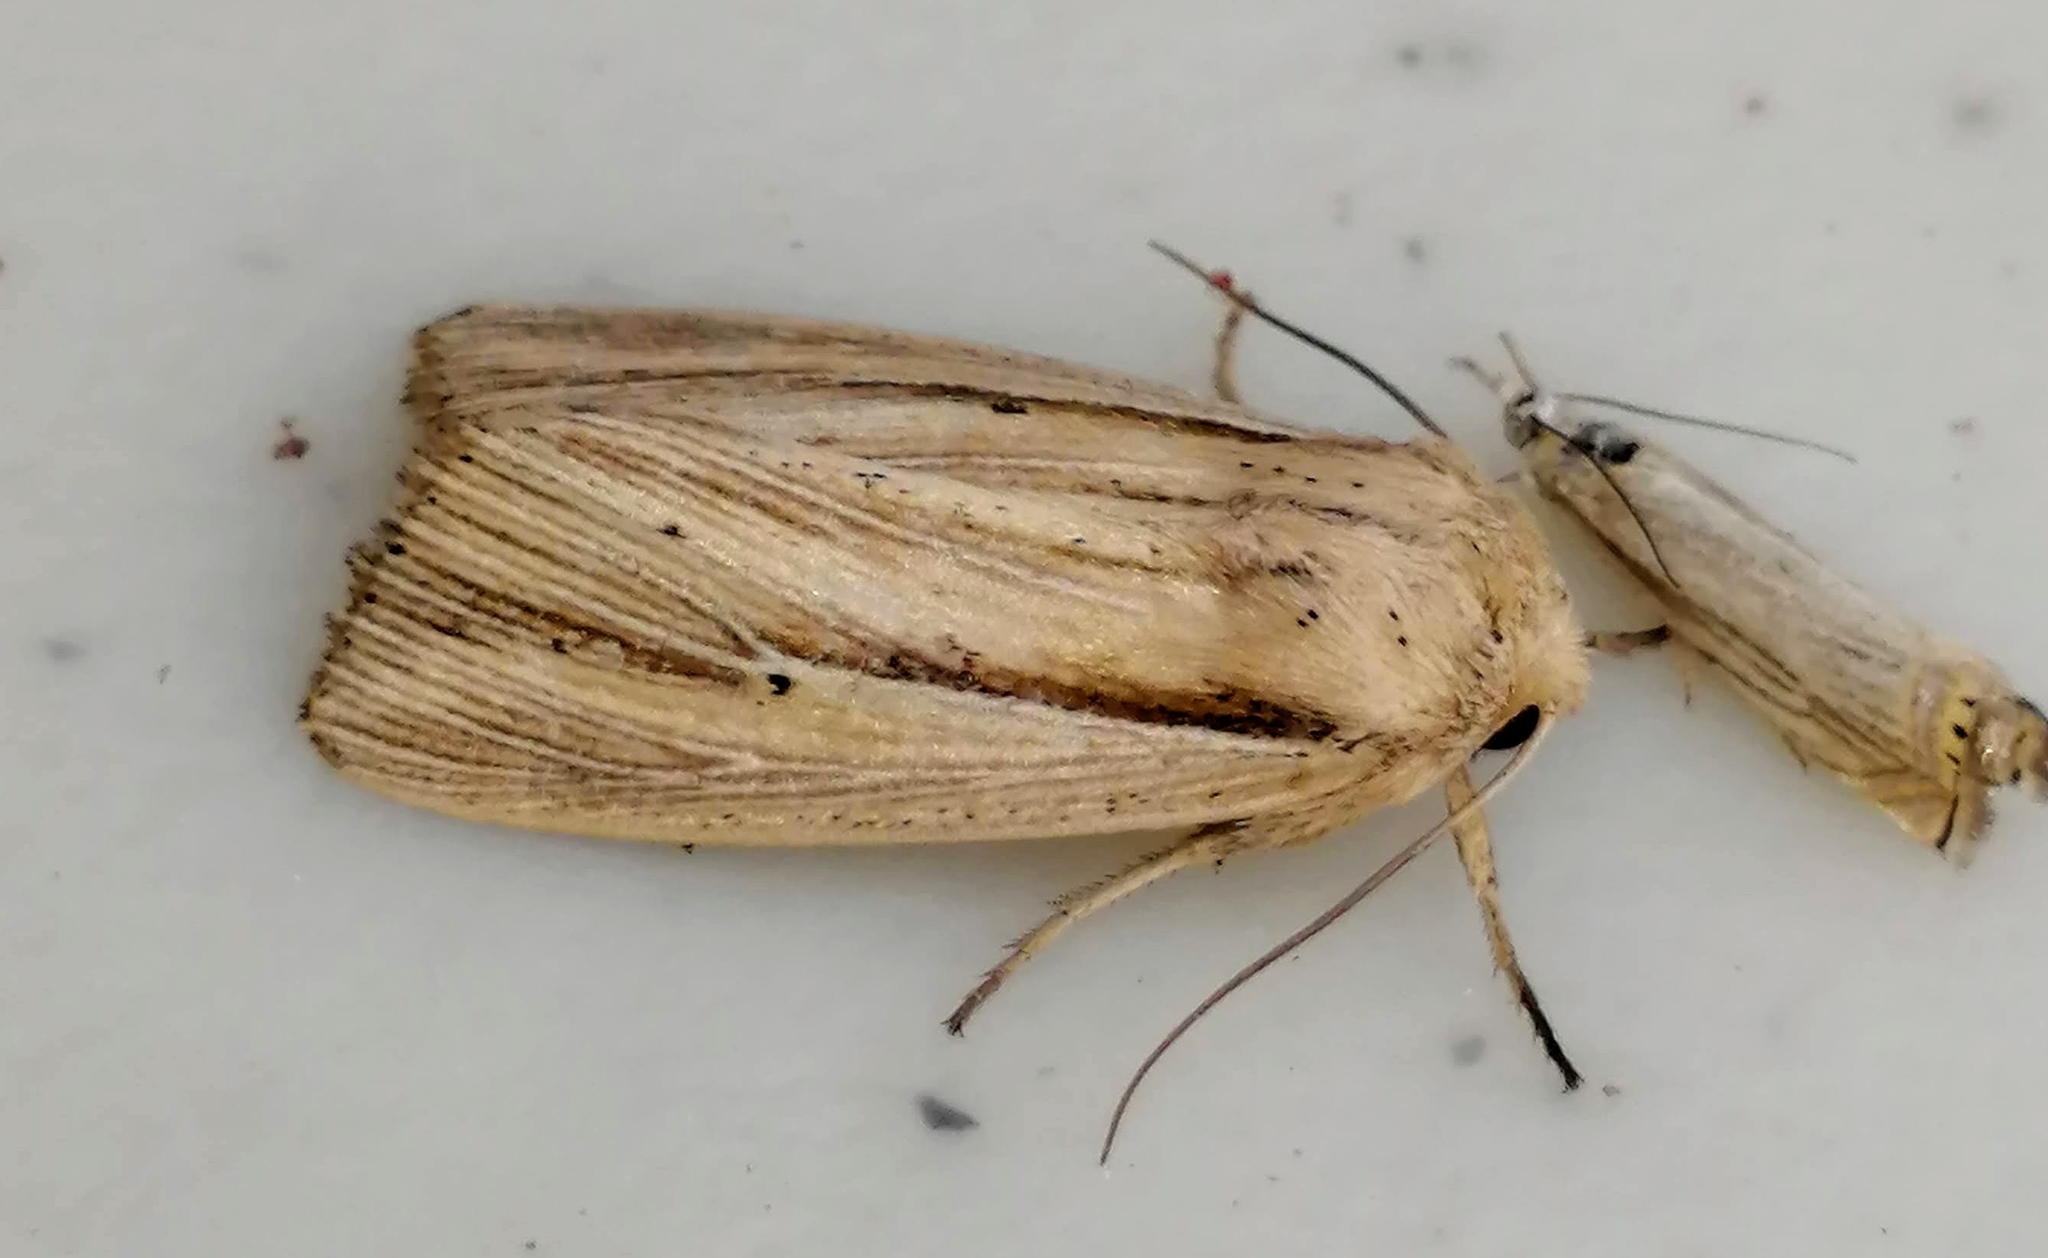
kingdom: Animalia
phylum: Arthropoda
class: Insecta
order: Lepidoptera
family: Noctuidae
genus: Mythimna
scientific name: Mythimna oxygala
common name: Lesser wainscot
